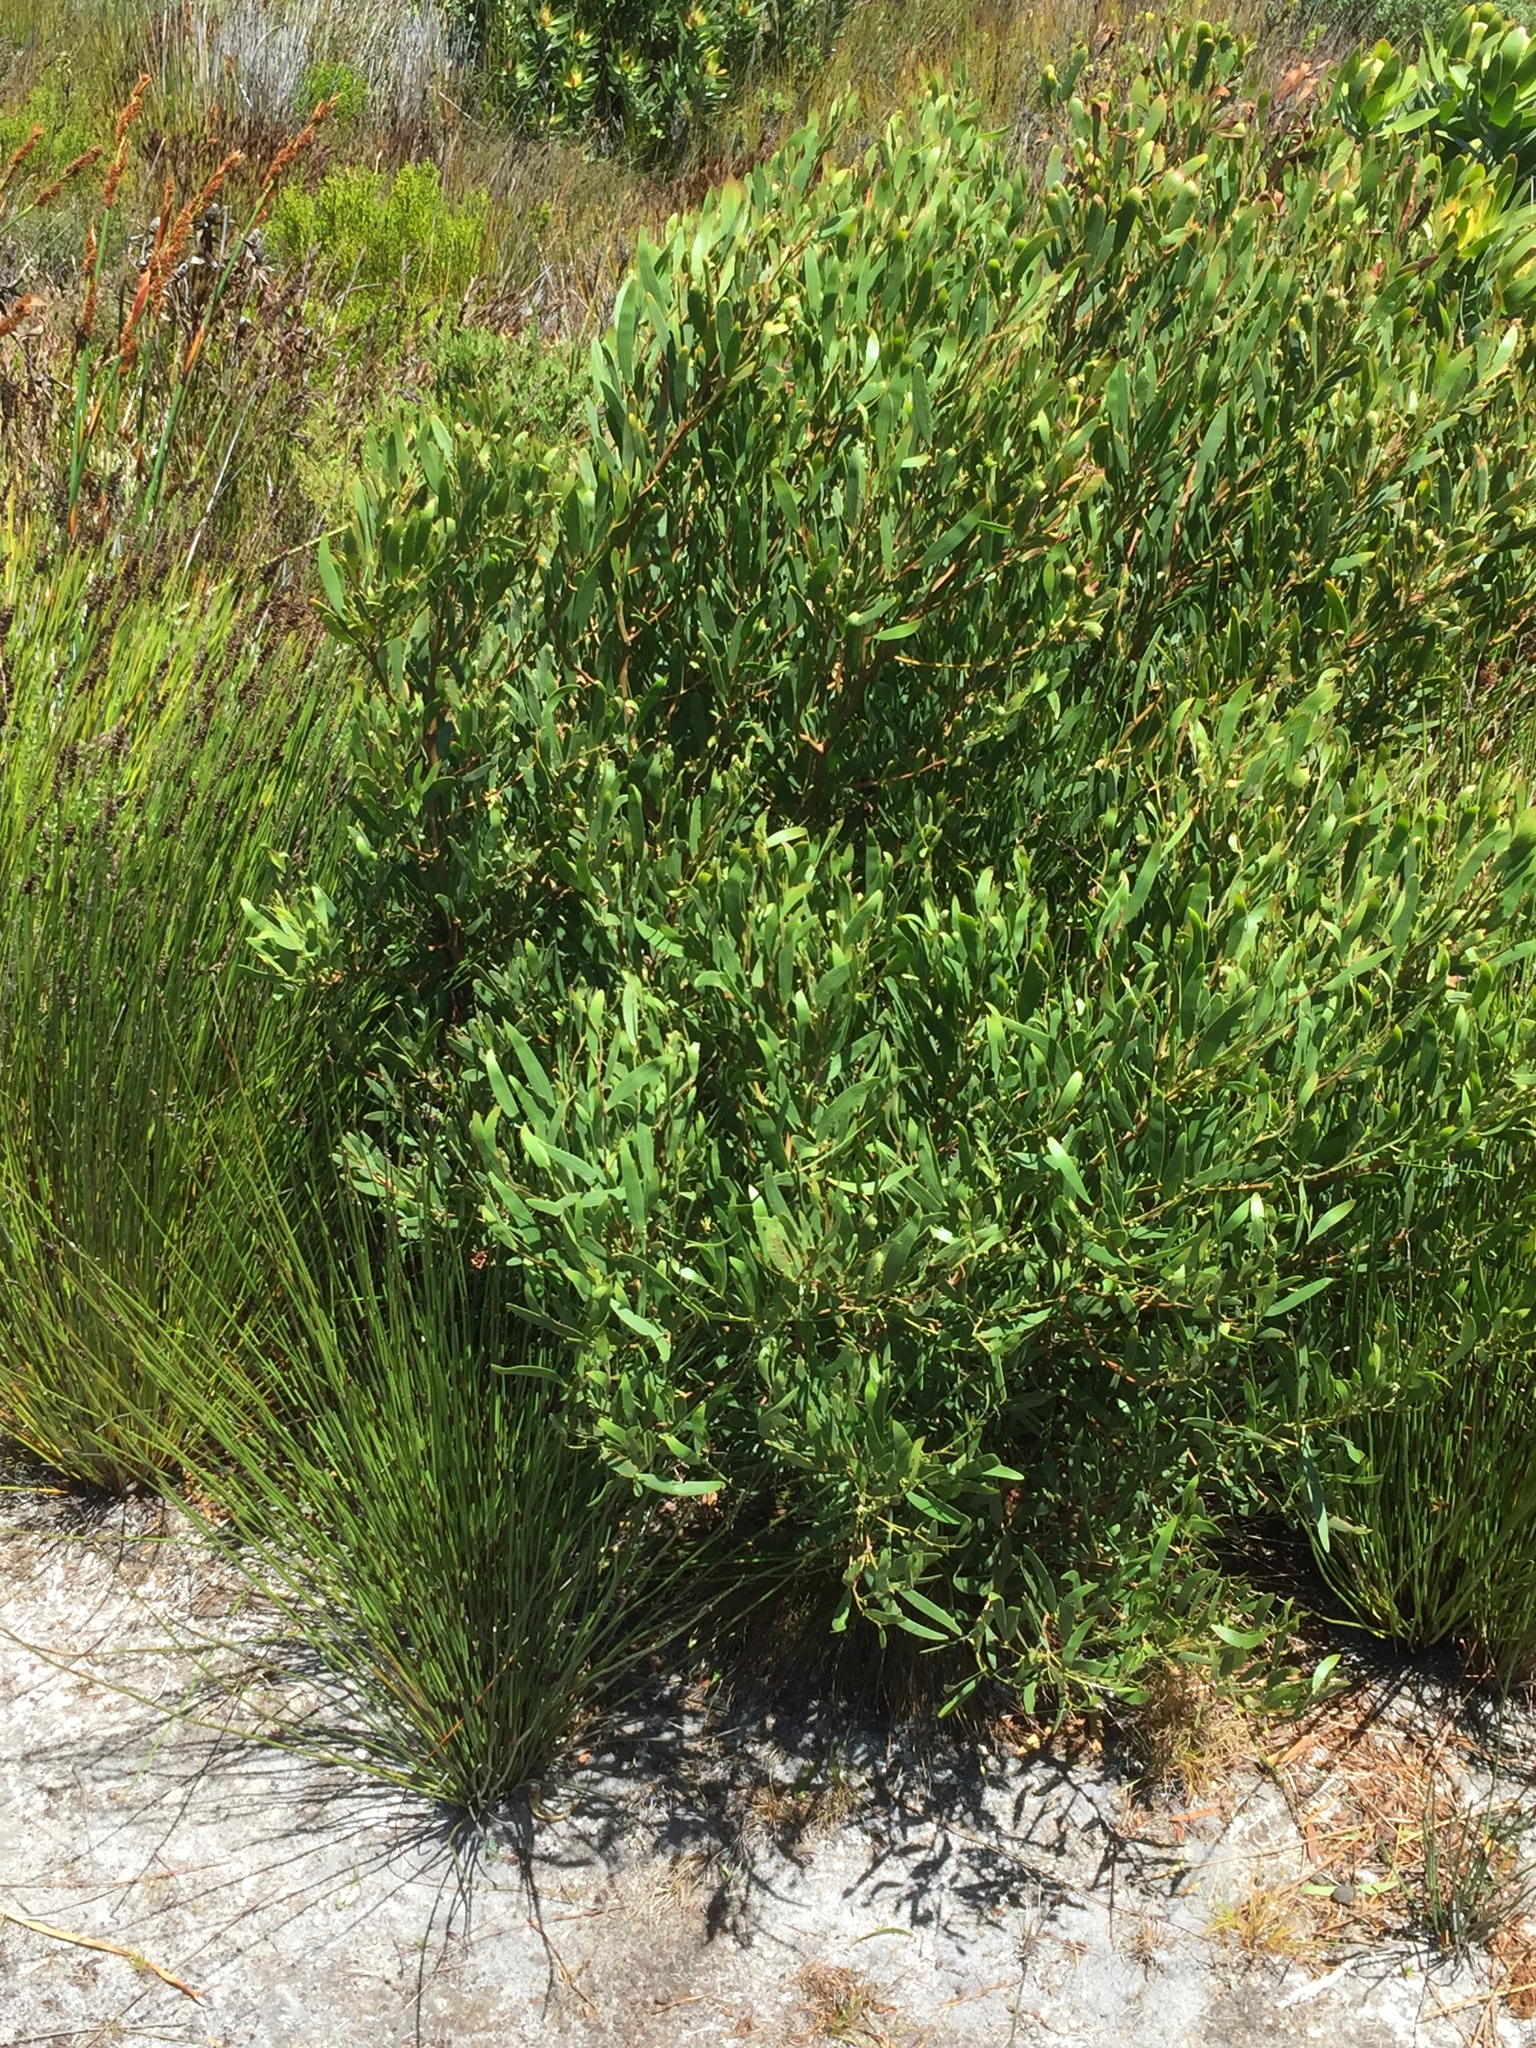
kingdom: Plantae
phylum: Tracheophyta
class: Magnoliopsida
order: Fabales
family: Fabaceae
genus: Acacia
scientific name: Acacia cyclops
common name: Coastal wattle
